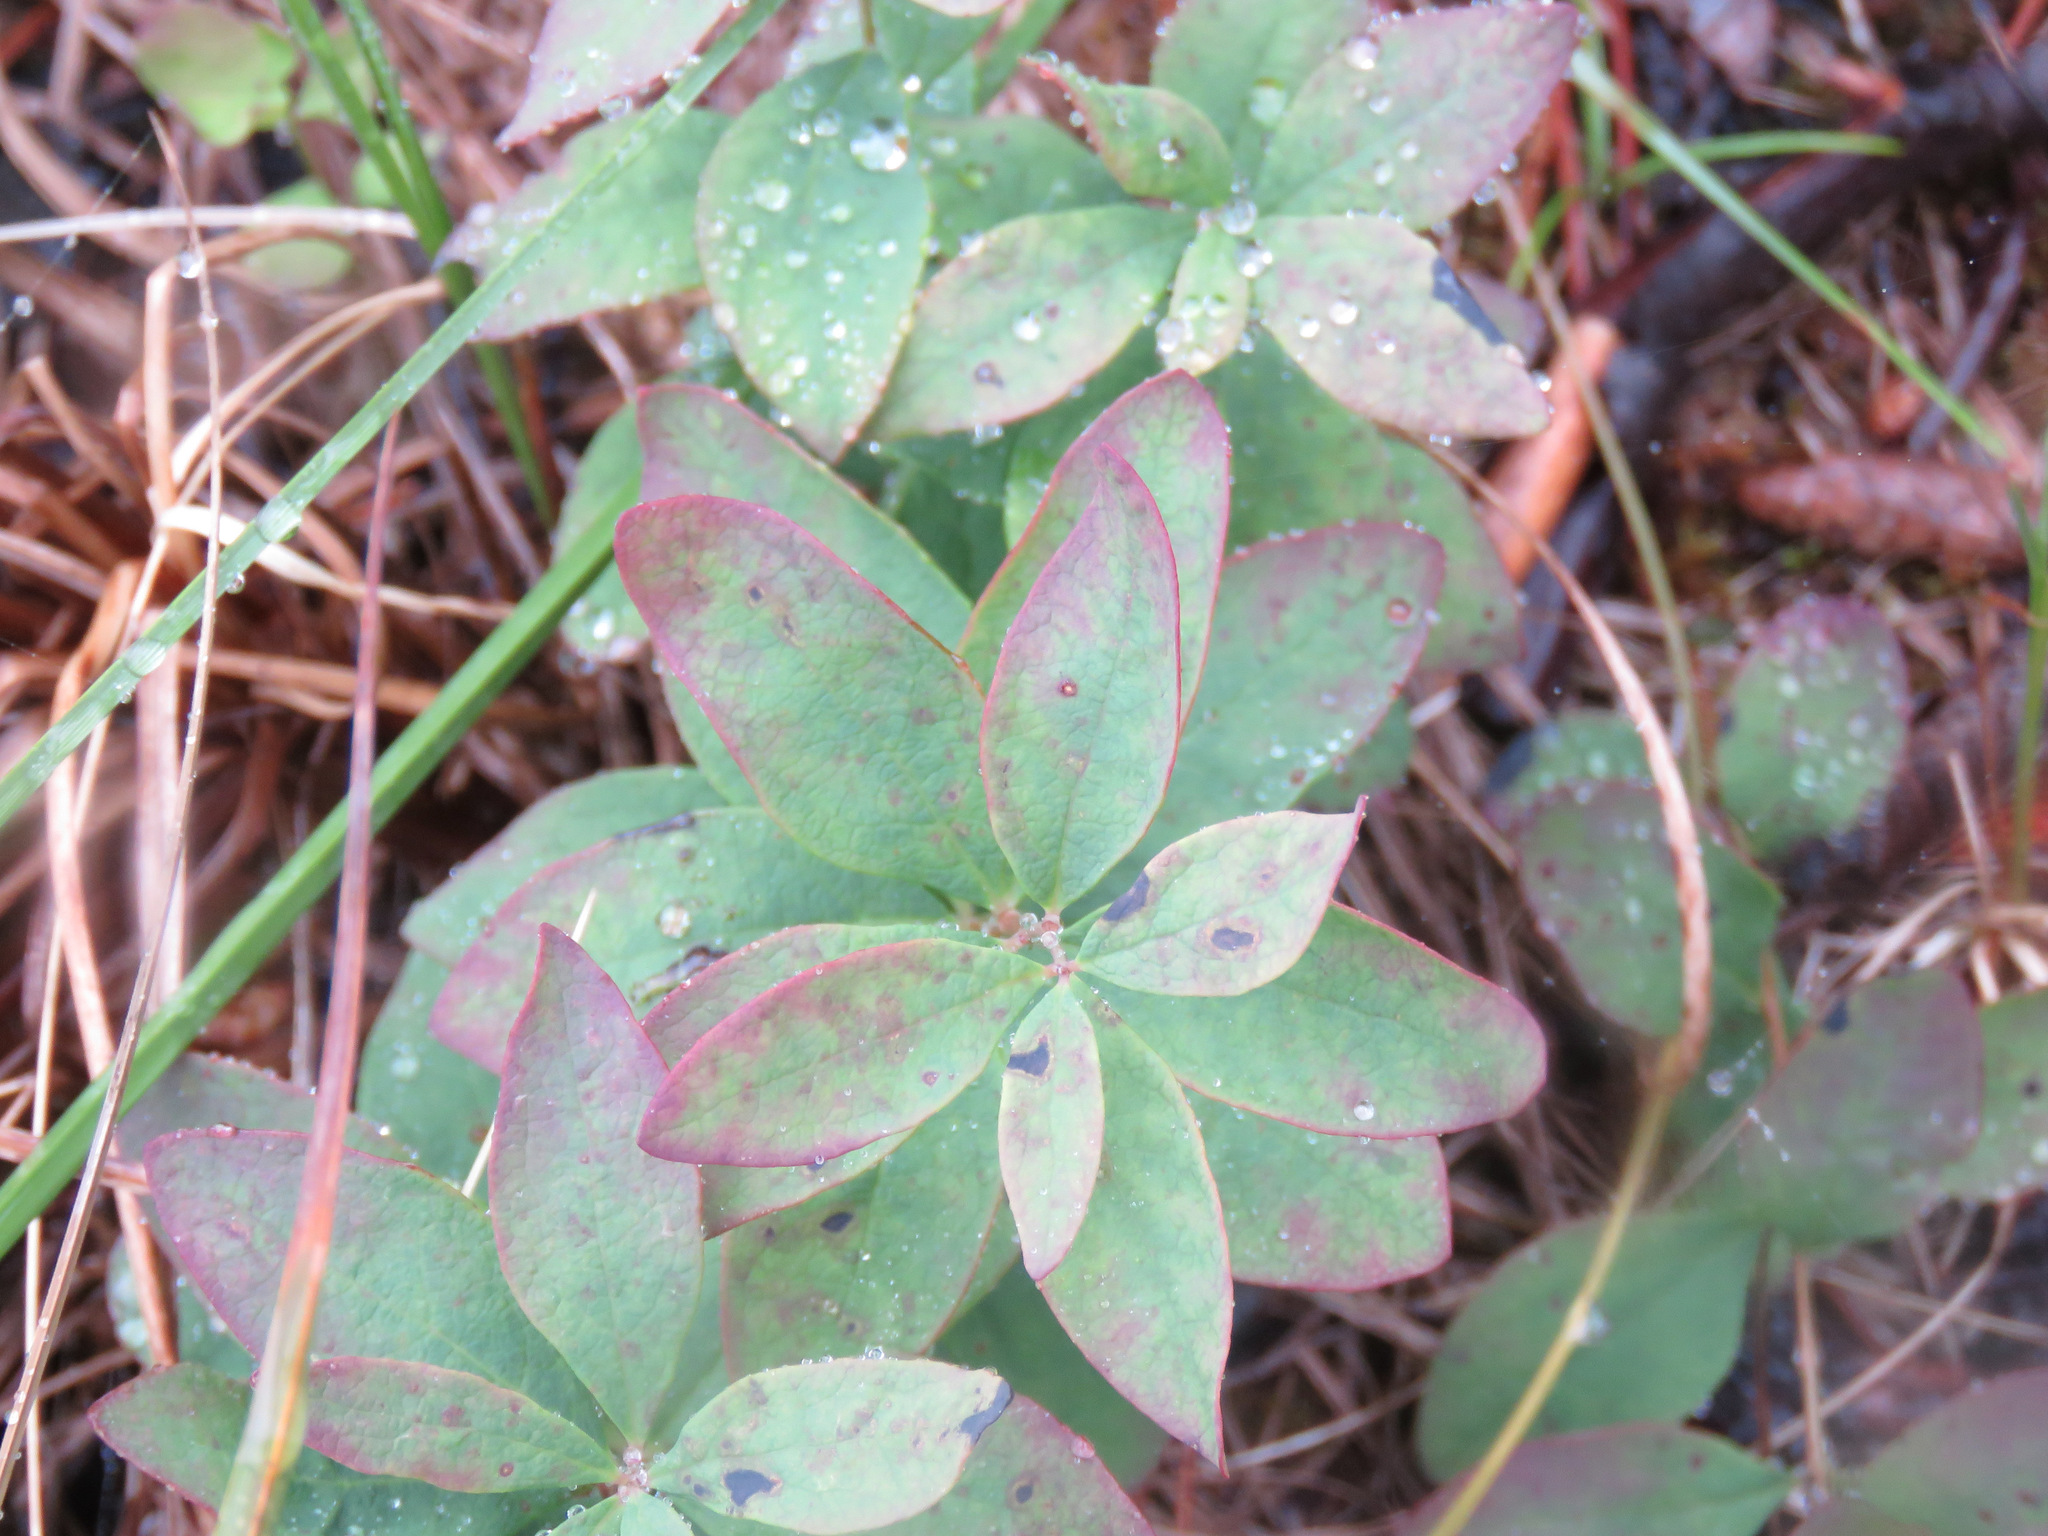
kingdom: Plantae
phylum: Tracheophyta
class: Magnoliopsida
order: Santalales
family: Comandraceae
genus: Geocaulon
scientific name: Geocaulon lividum
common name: Earthberry
